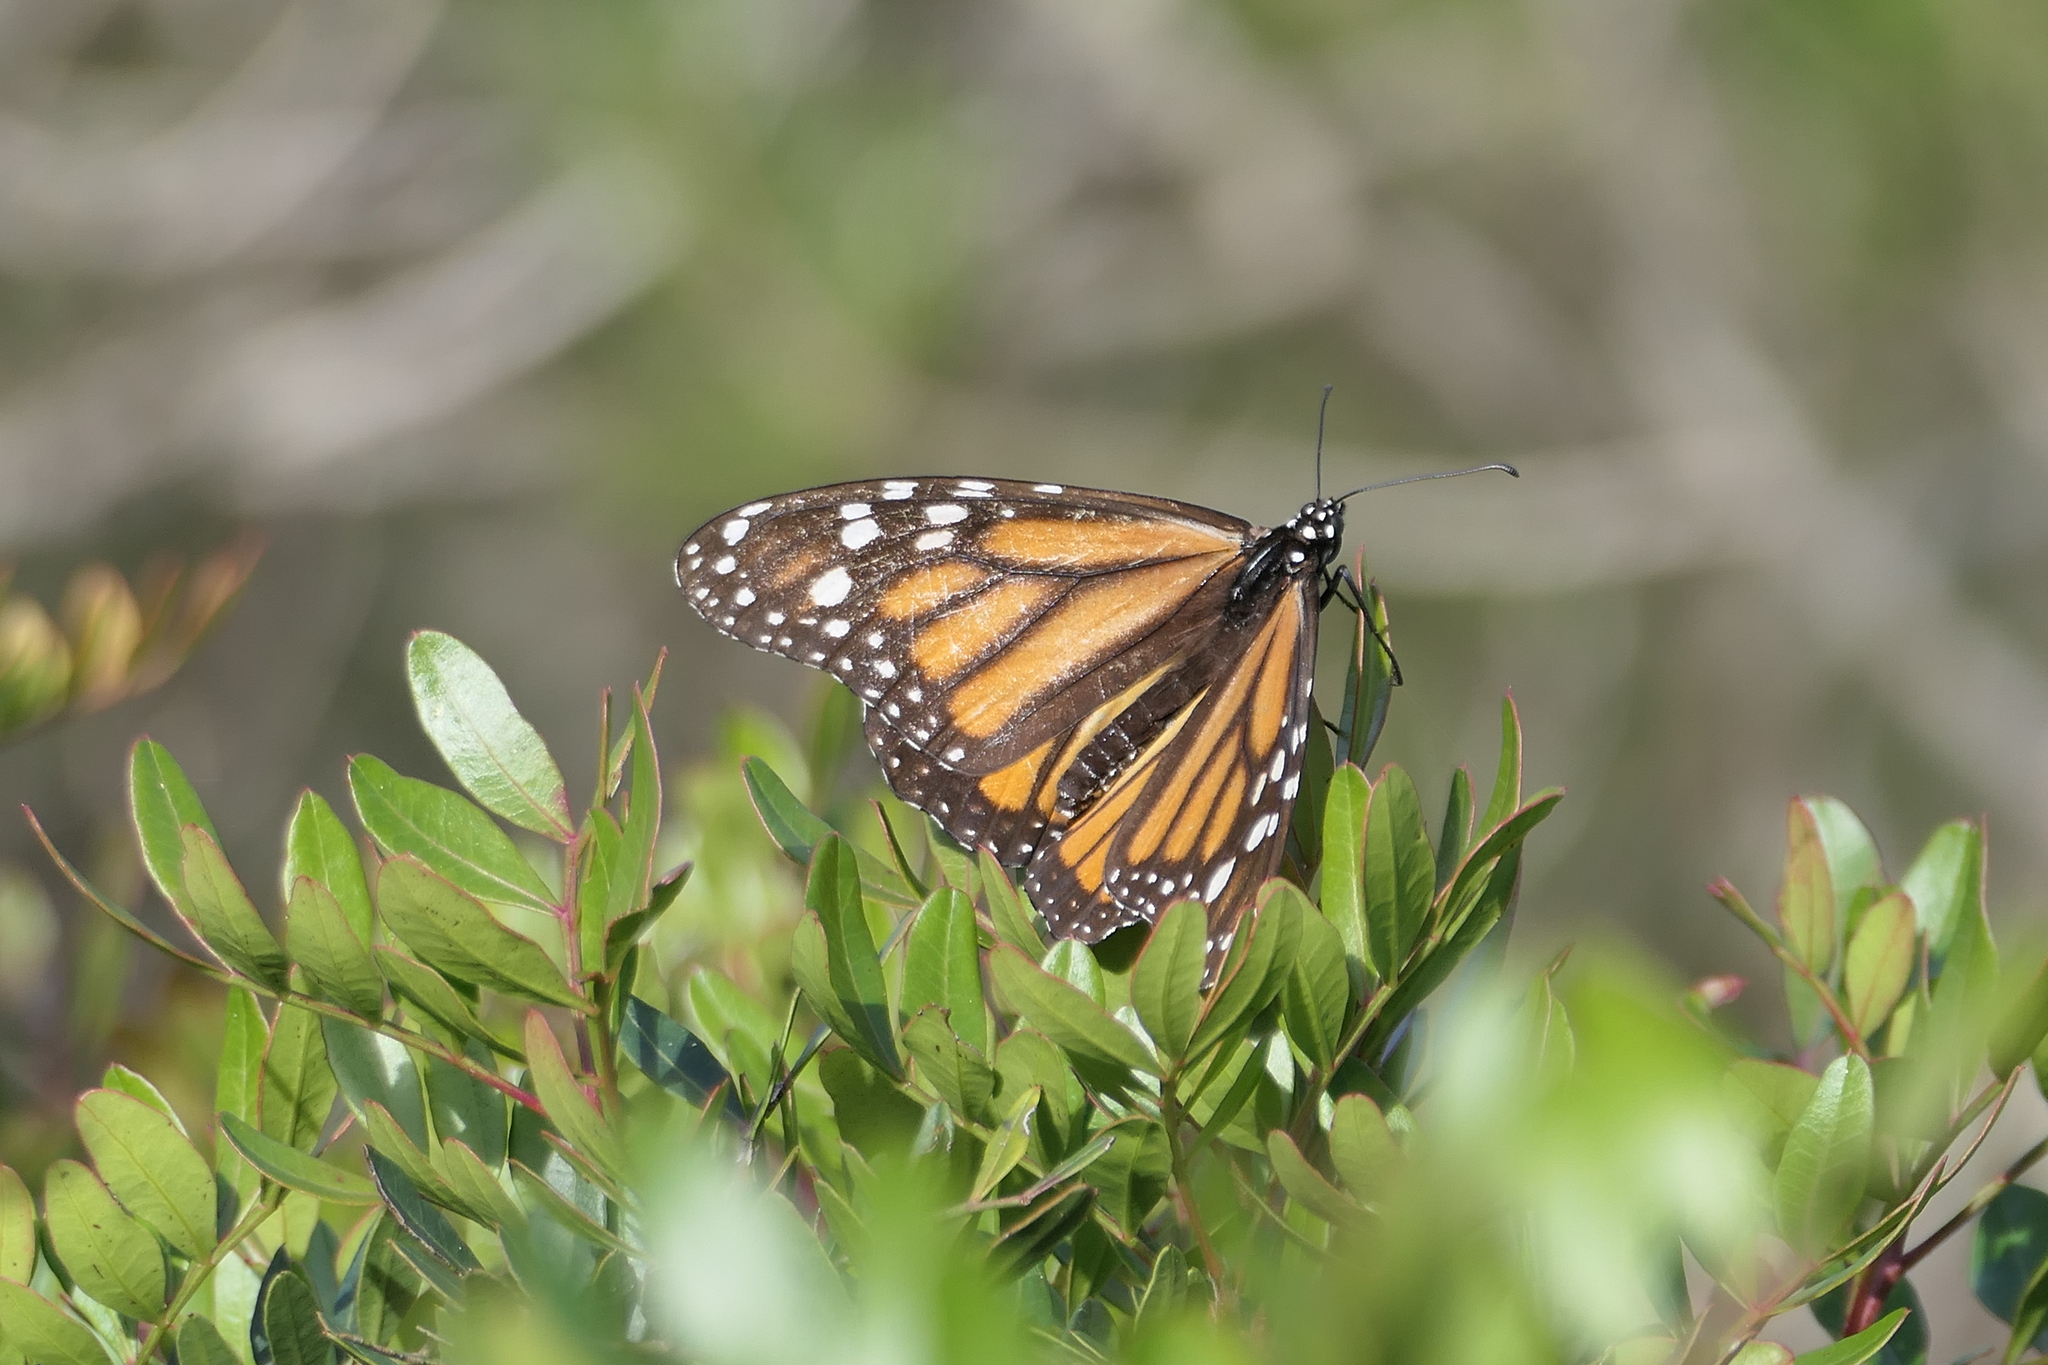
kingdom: Animalia
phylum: Arthropoda
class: Insecta
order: Lepidoptera
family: Nymphalidae
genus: Danaus
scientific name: Danaus plexippus
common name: Monarch
